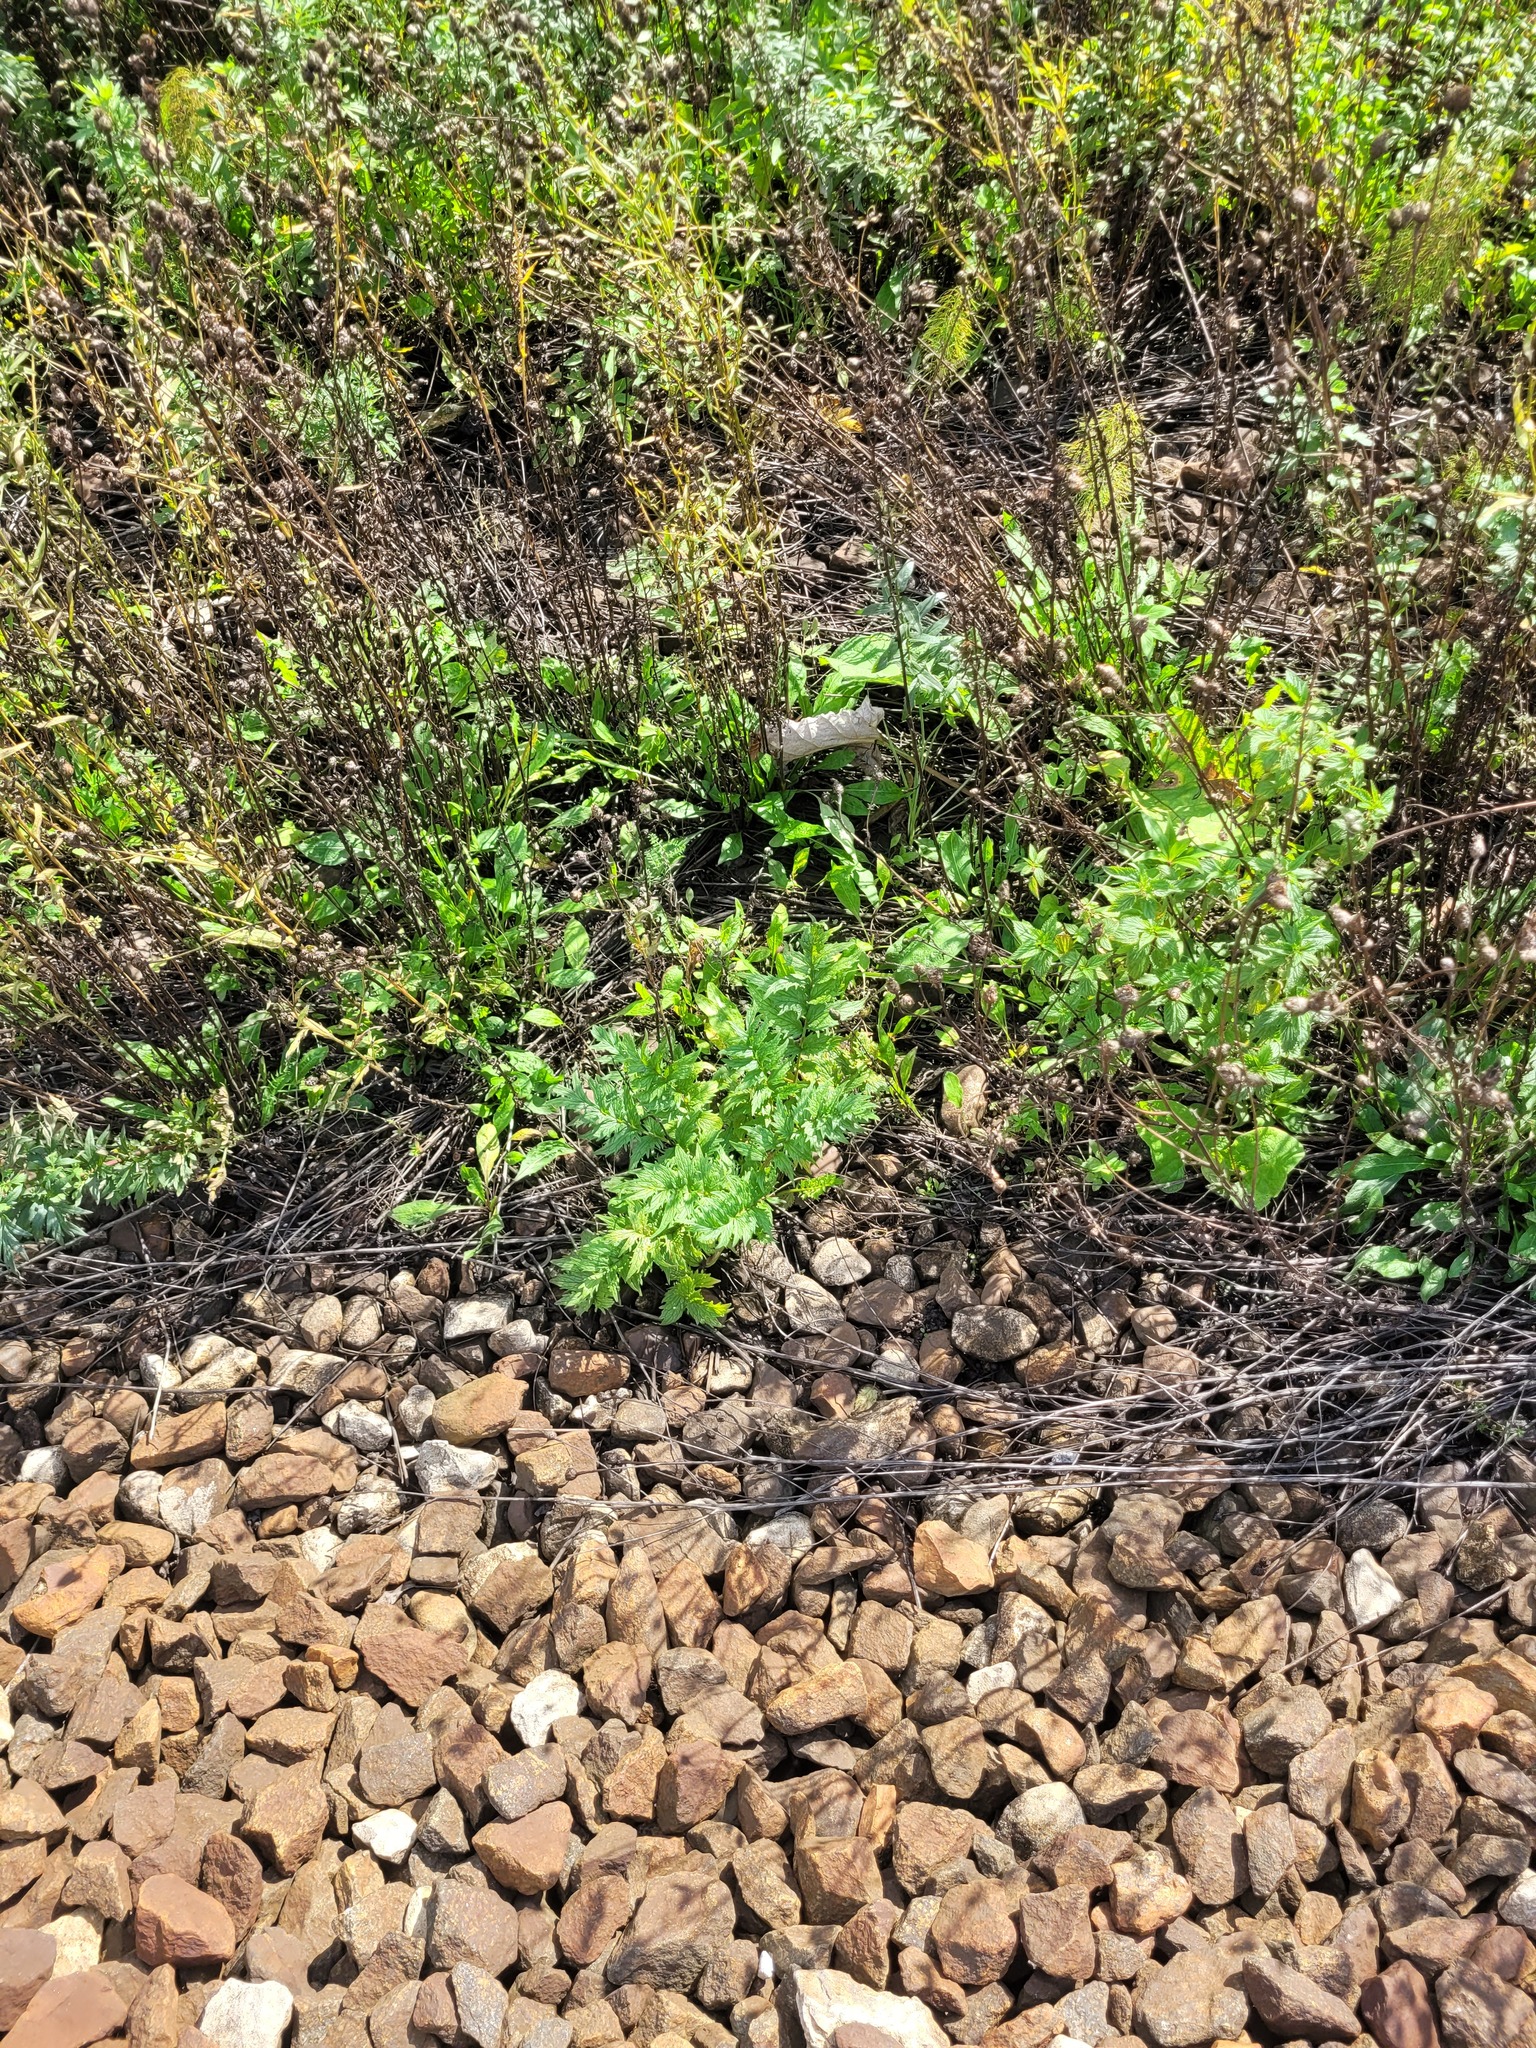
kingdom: Plantae
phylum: Tracheophyta
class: Magnoliopsida
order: Dipsacales
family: Caprifoliaceae
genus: Valeriana
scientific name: Valeriana officinalis
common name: Common valerian
